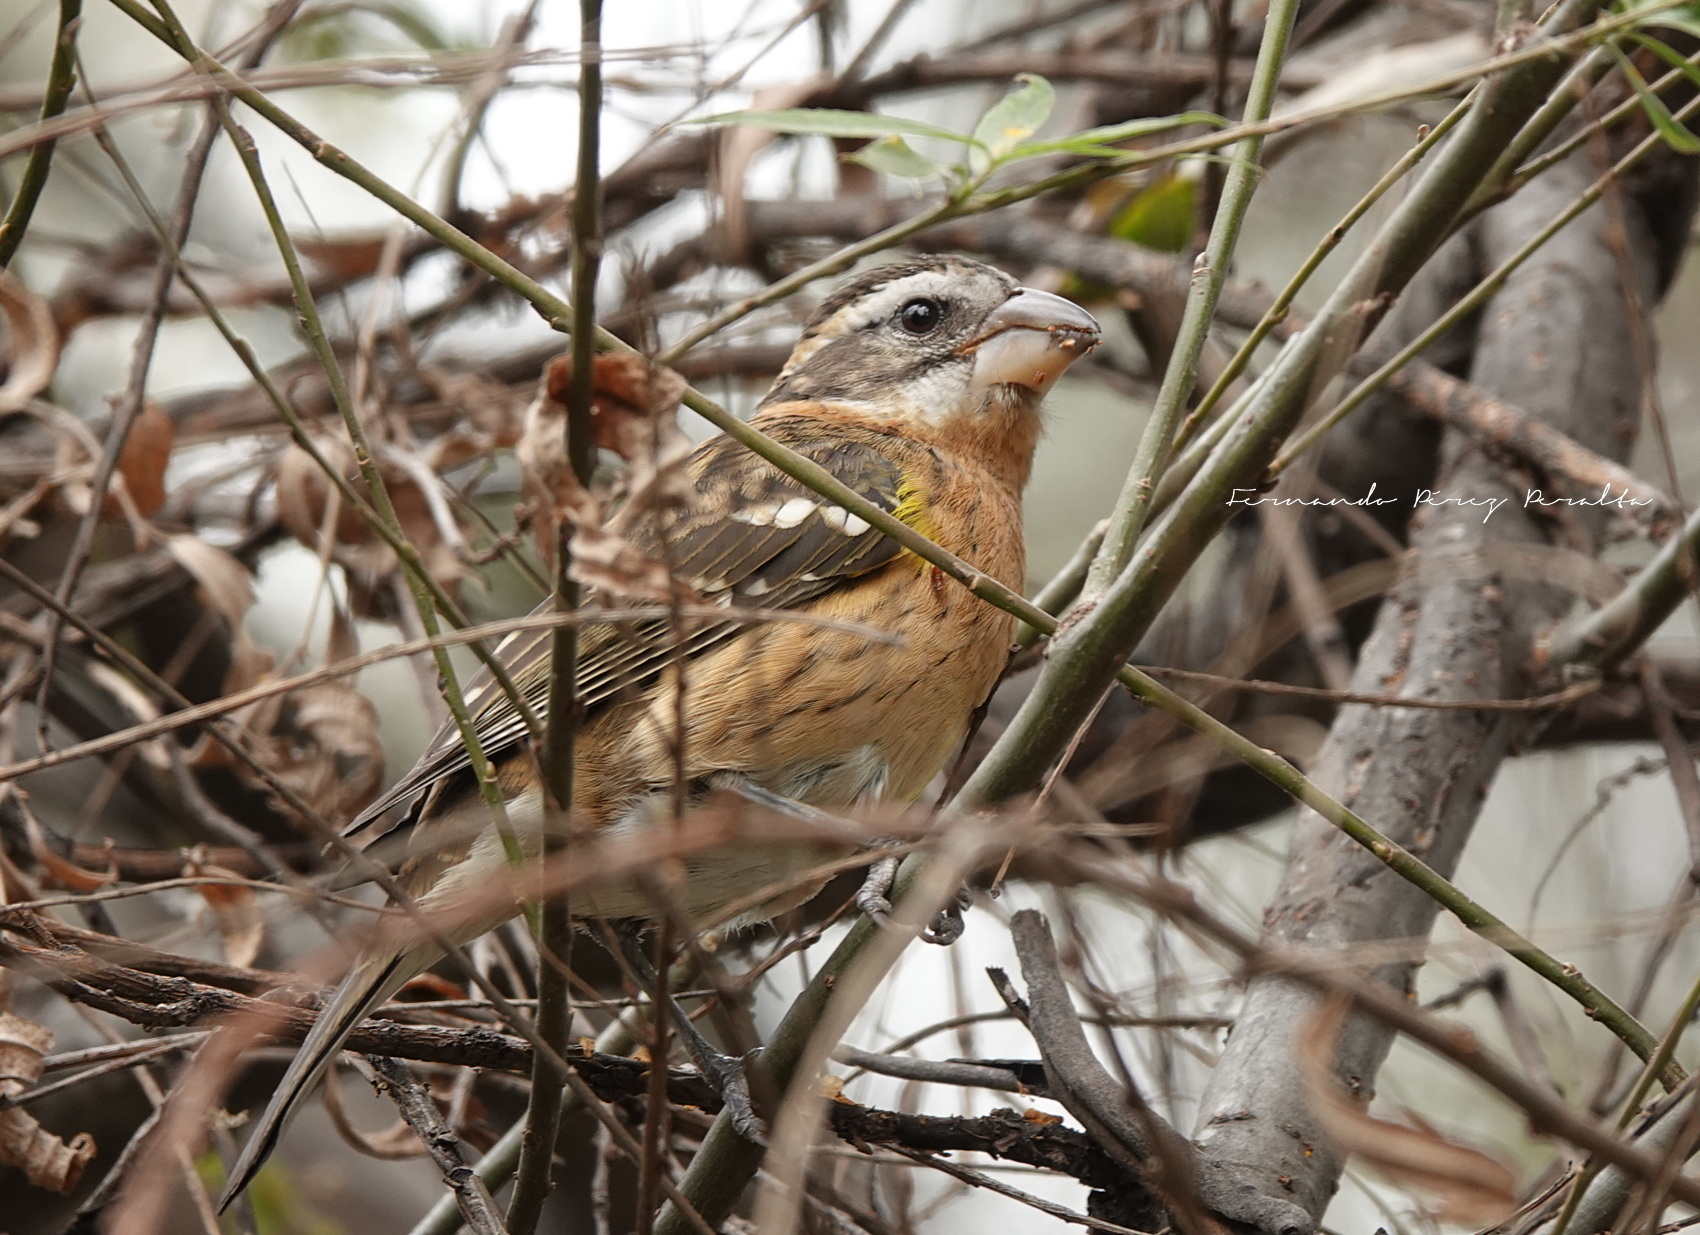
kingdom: Animalia
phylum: Chordata
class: Aves
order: Passeriformes
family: Cardinalidae
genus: Pheucticus
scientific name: Pheucticus melanocephalus
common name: Black-headed grosbeak
